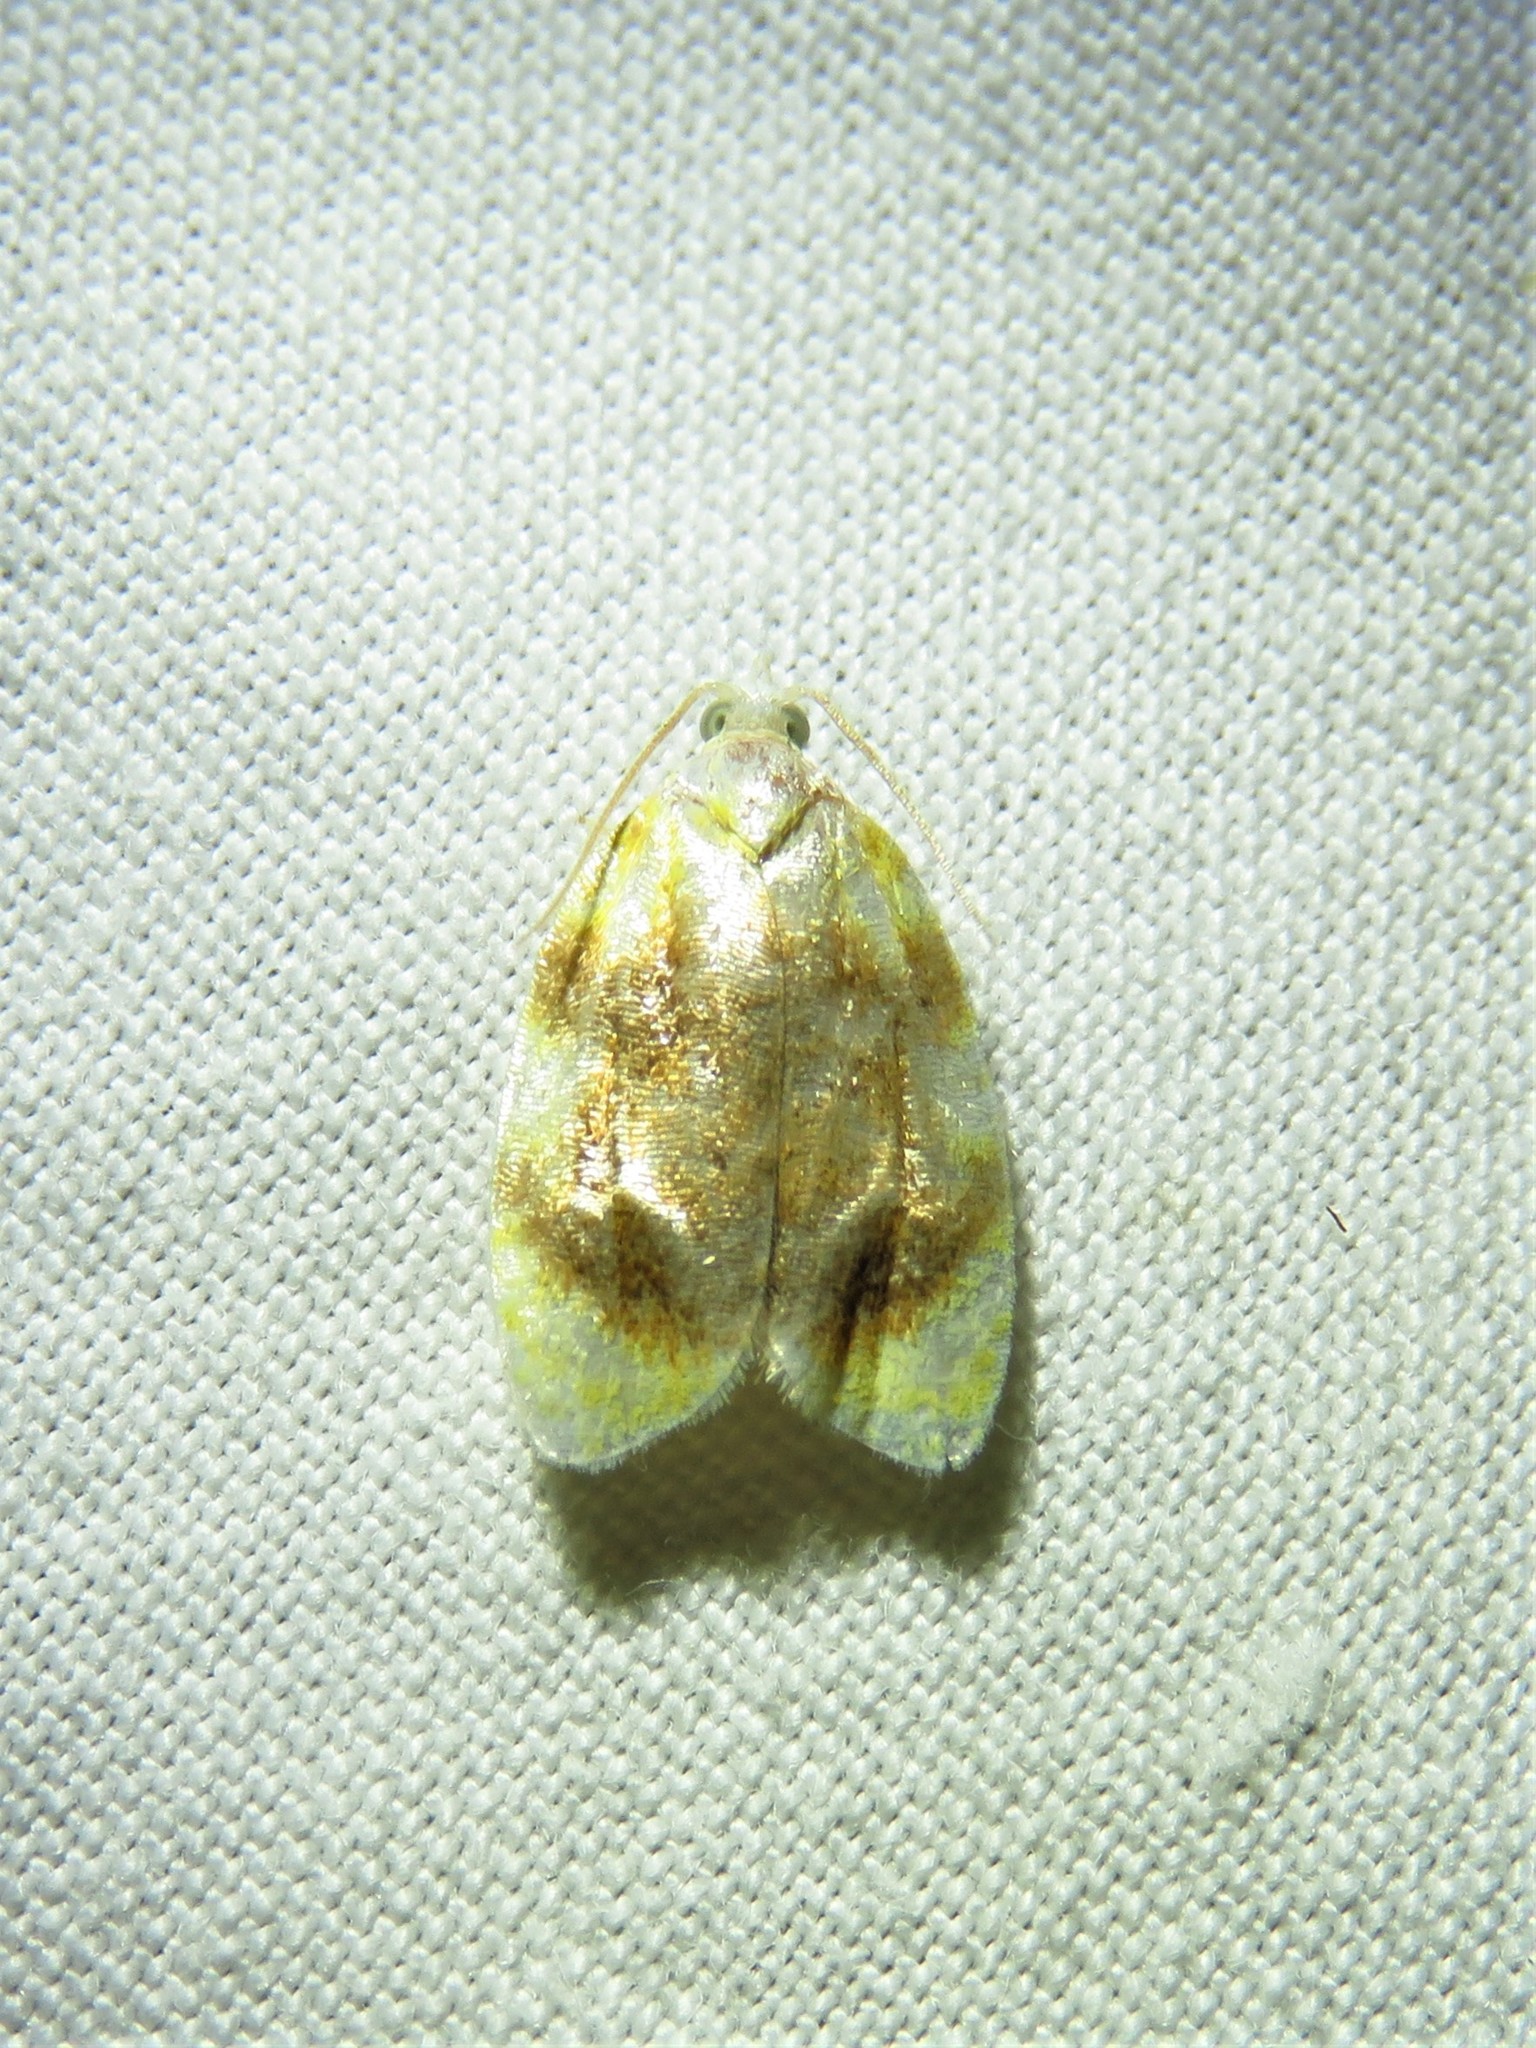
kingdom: Animalia
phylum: Arthropoda
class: Insecta
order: Lepidoptera
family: Tortricidae
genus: Acleris
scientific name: Acleris semipurpurana
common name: Oak leaftier moth
